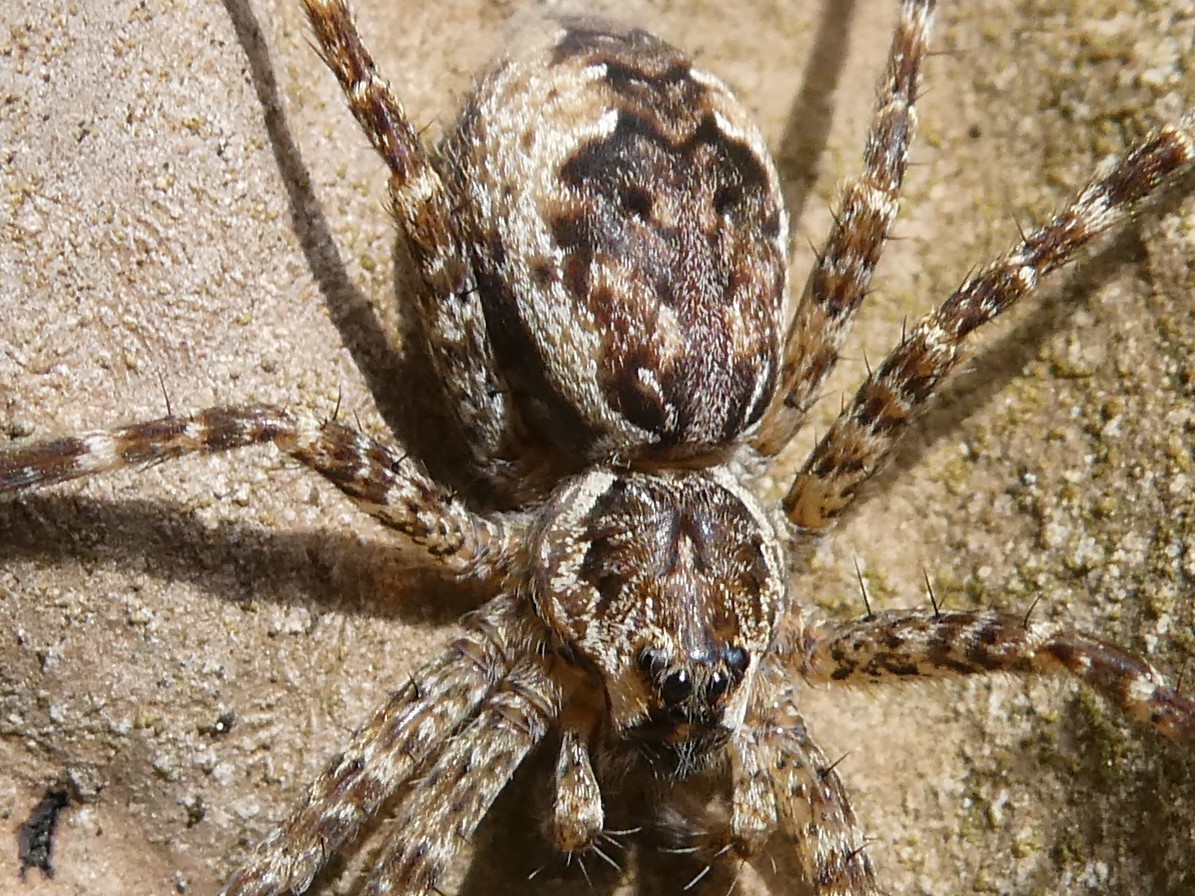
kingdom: Animalia
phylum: Arthropoda
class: Arachnida
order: Araneae
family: Pisauridae
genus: Dolomedes
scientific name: Dolomedes tenebrosus
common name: Dark fishing spider
